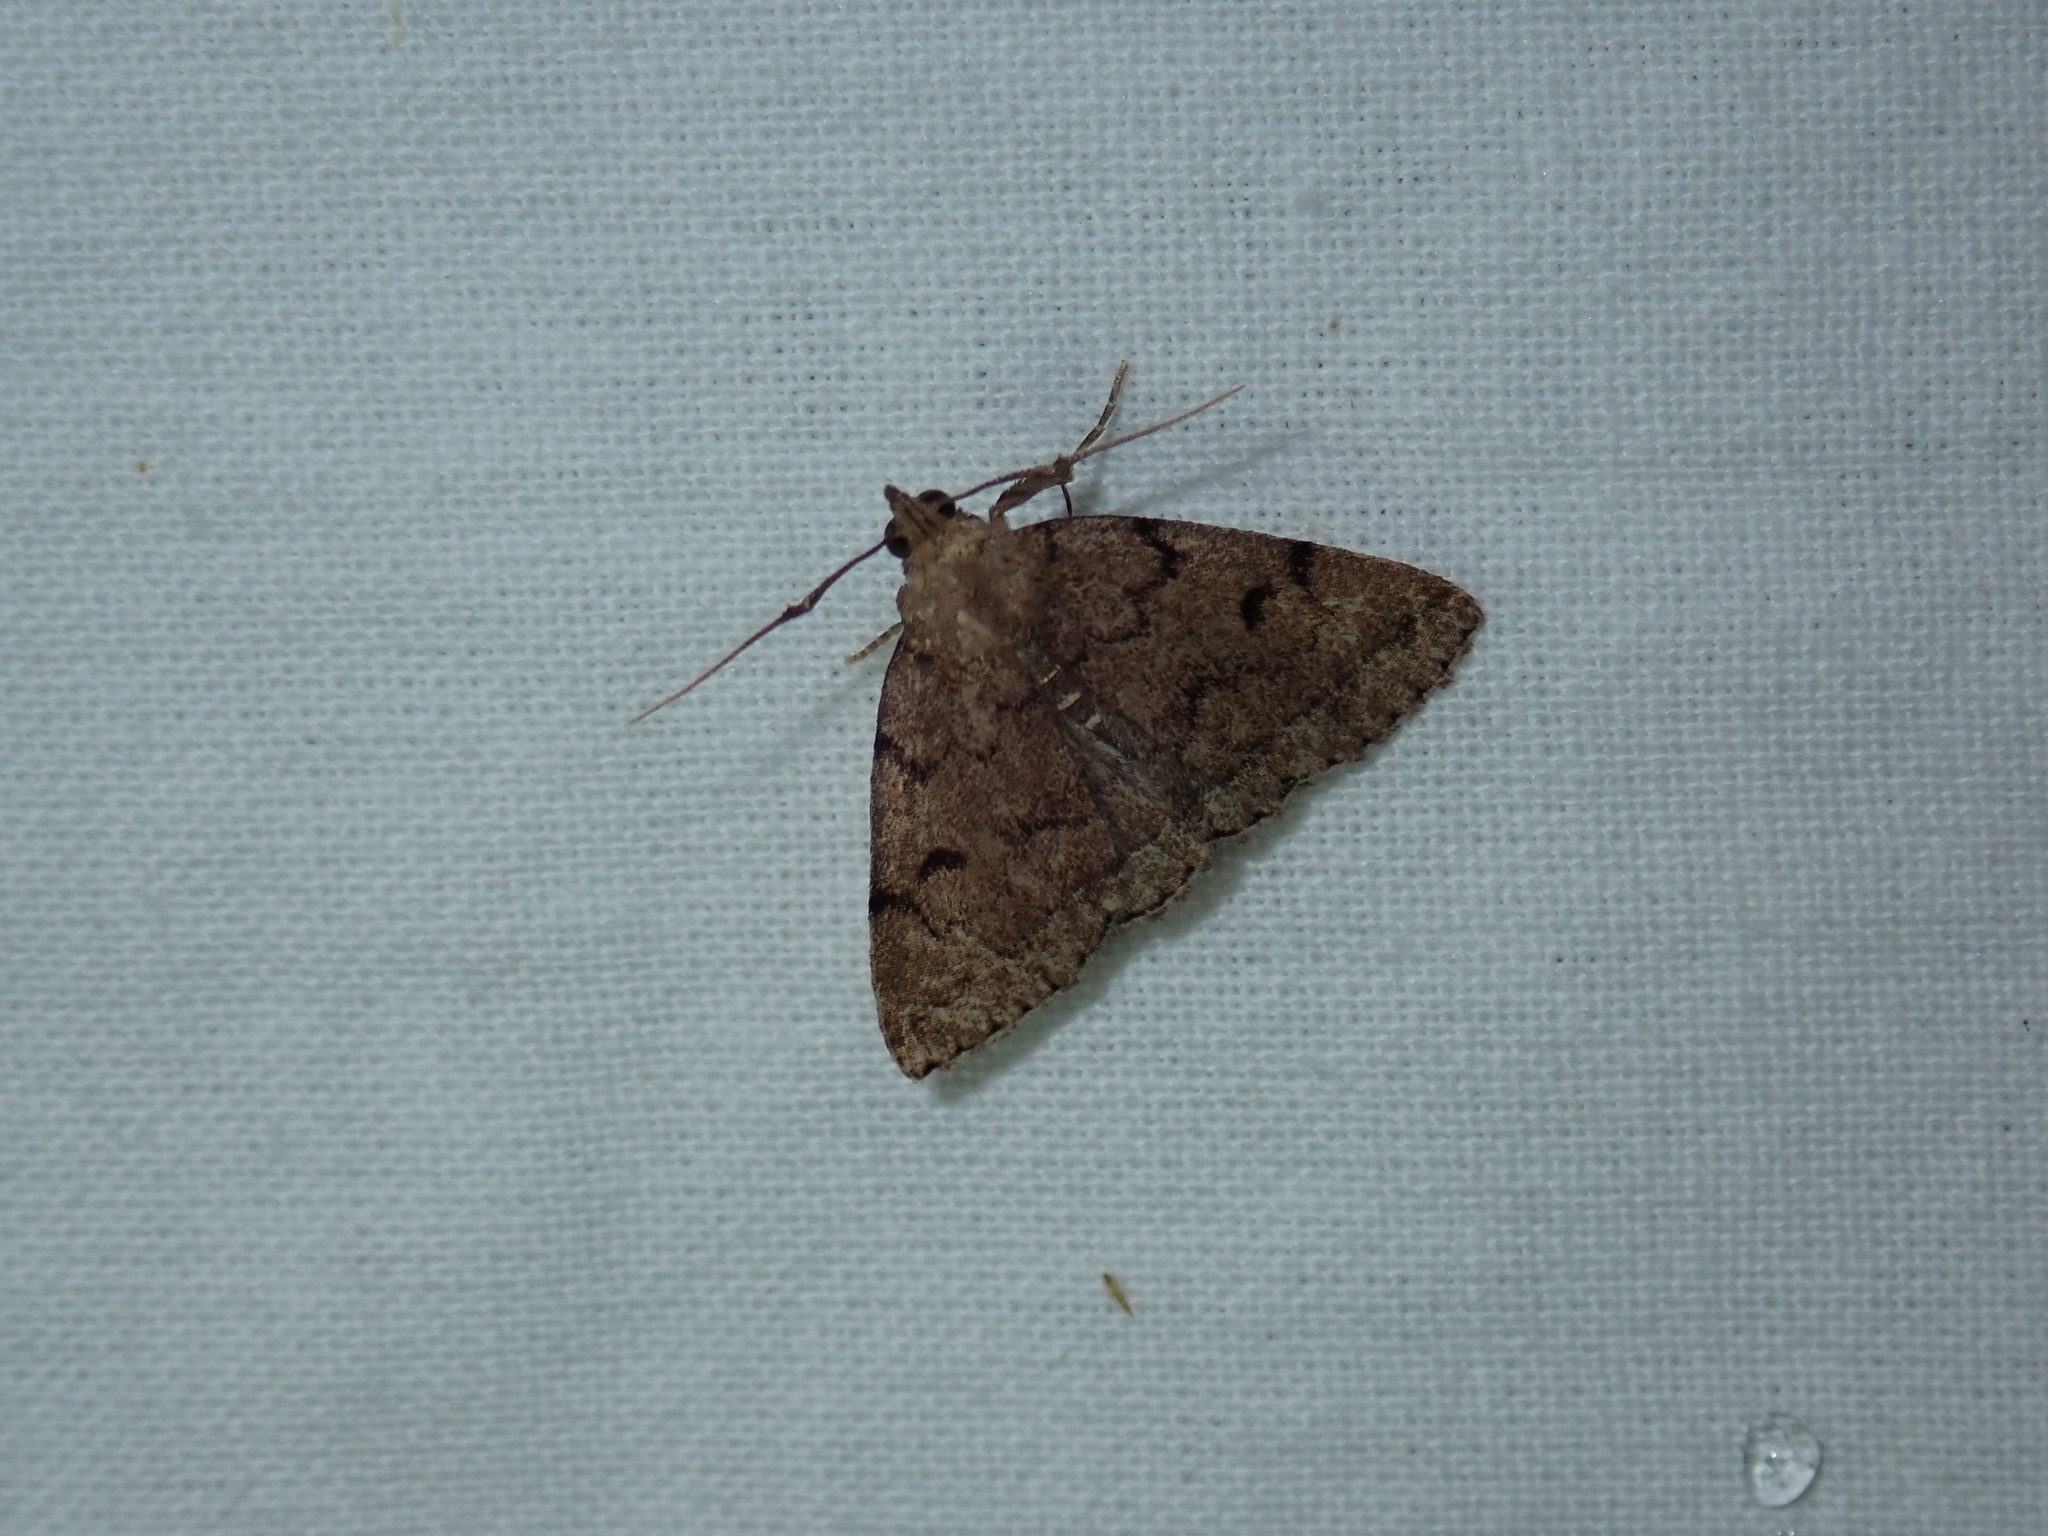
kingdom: Animalia
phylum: Arthropoda
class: Insecta
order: Lepidoptera
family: Erebidae
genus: Zanclognatha
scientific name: Zanclognatha dentata
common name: Toothed fan-foot
